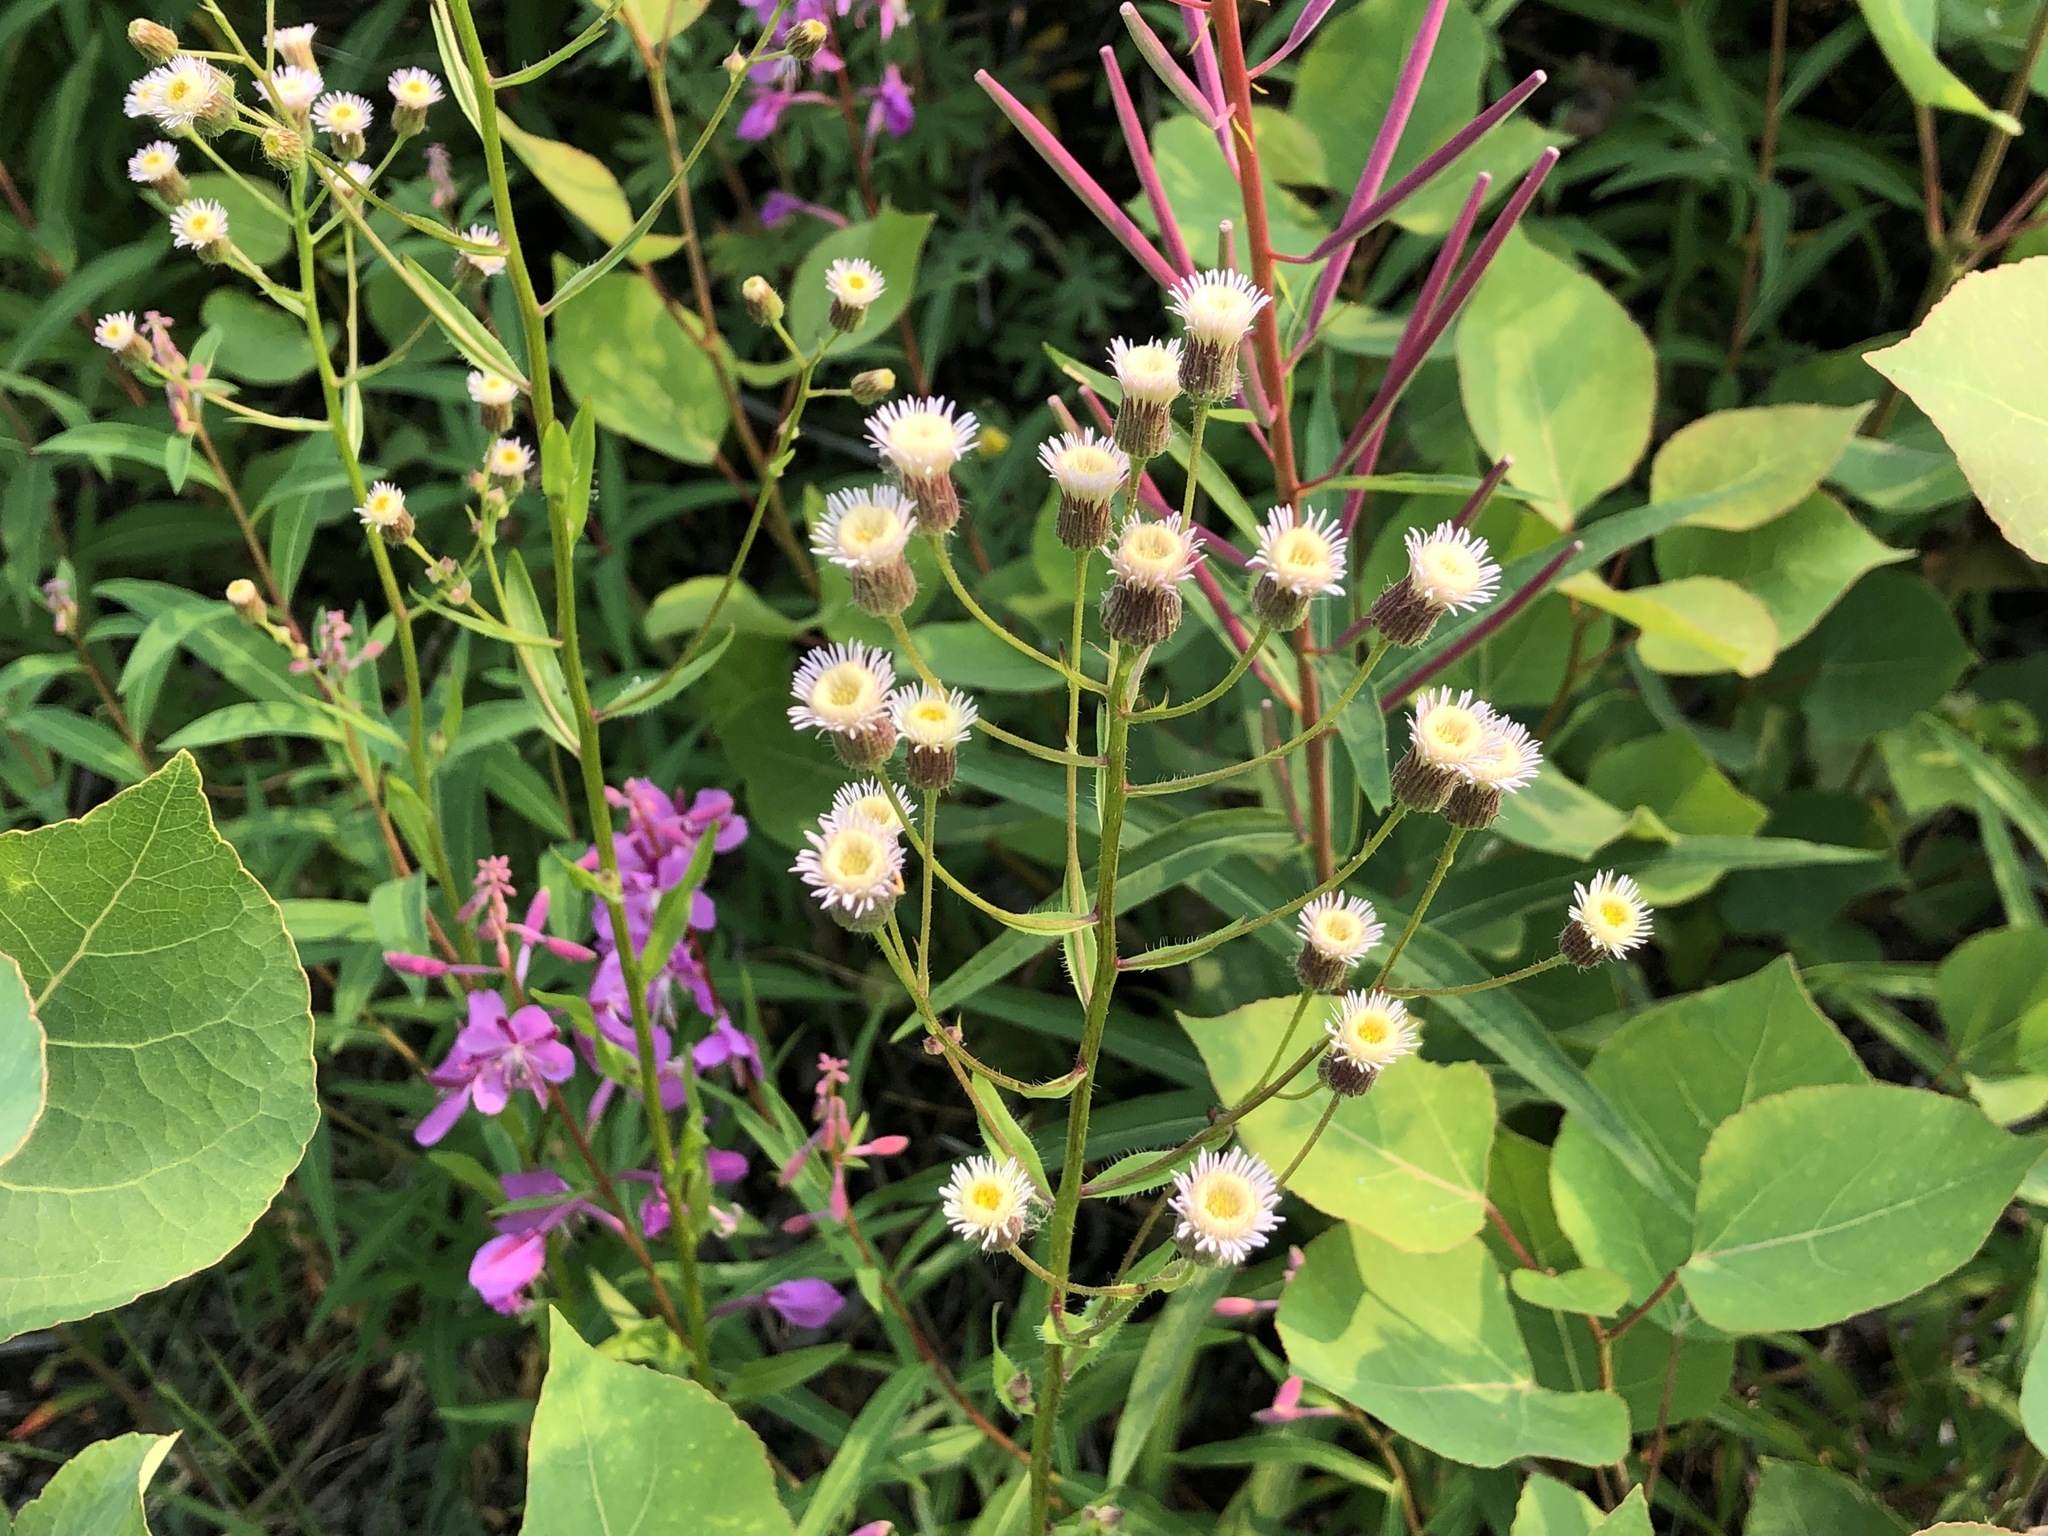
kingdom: Plantae
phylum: Tracheophyta
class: Magnoliopsida
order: Asterales
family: Asteraceae
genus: Erigeron
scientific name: Erigeron acris
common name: Blue fleabane
